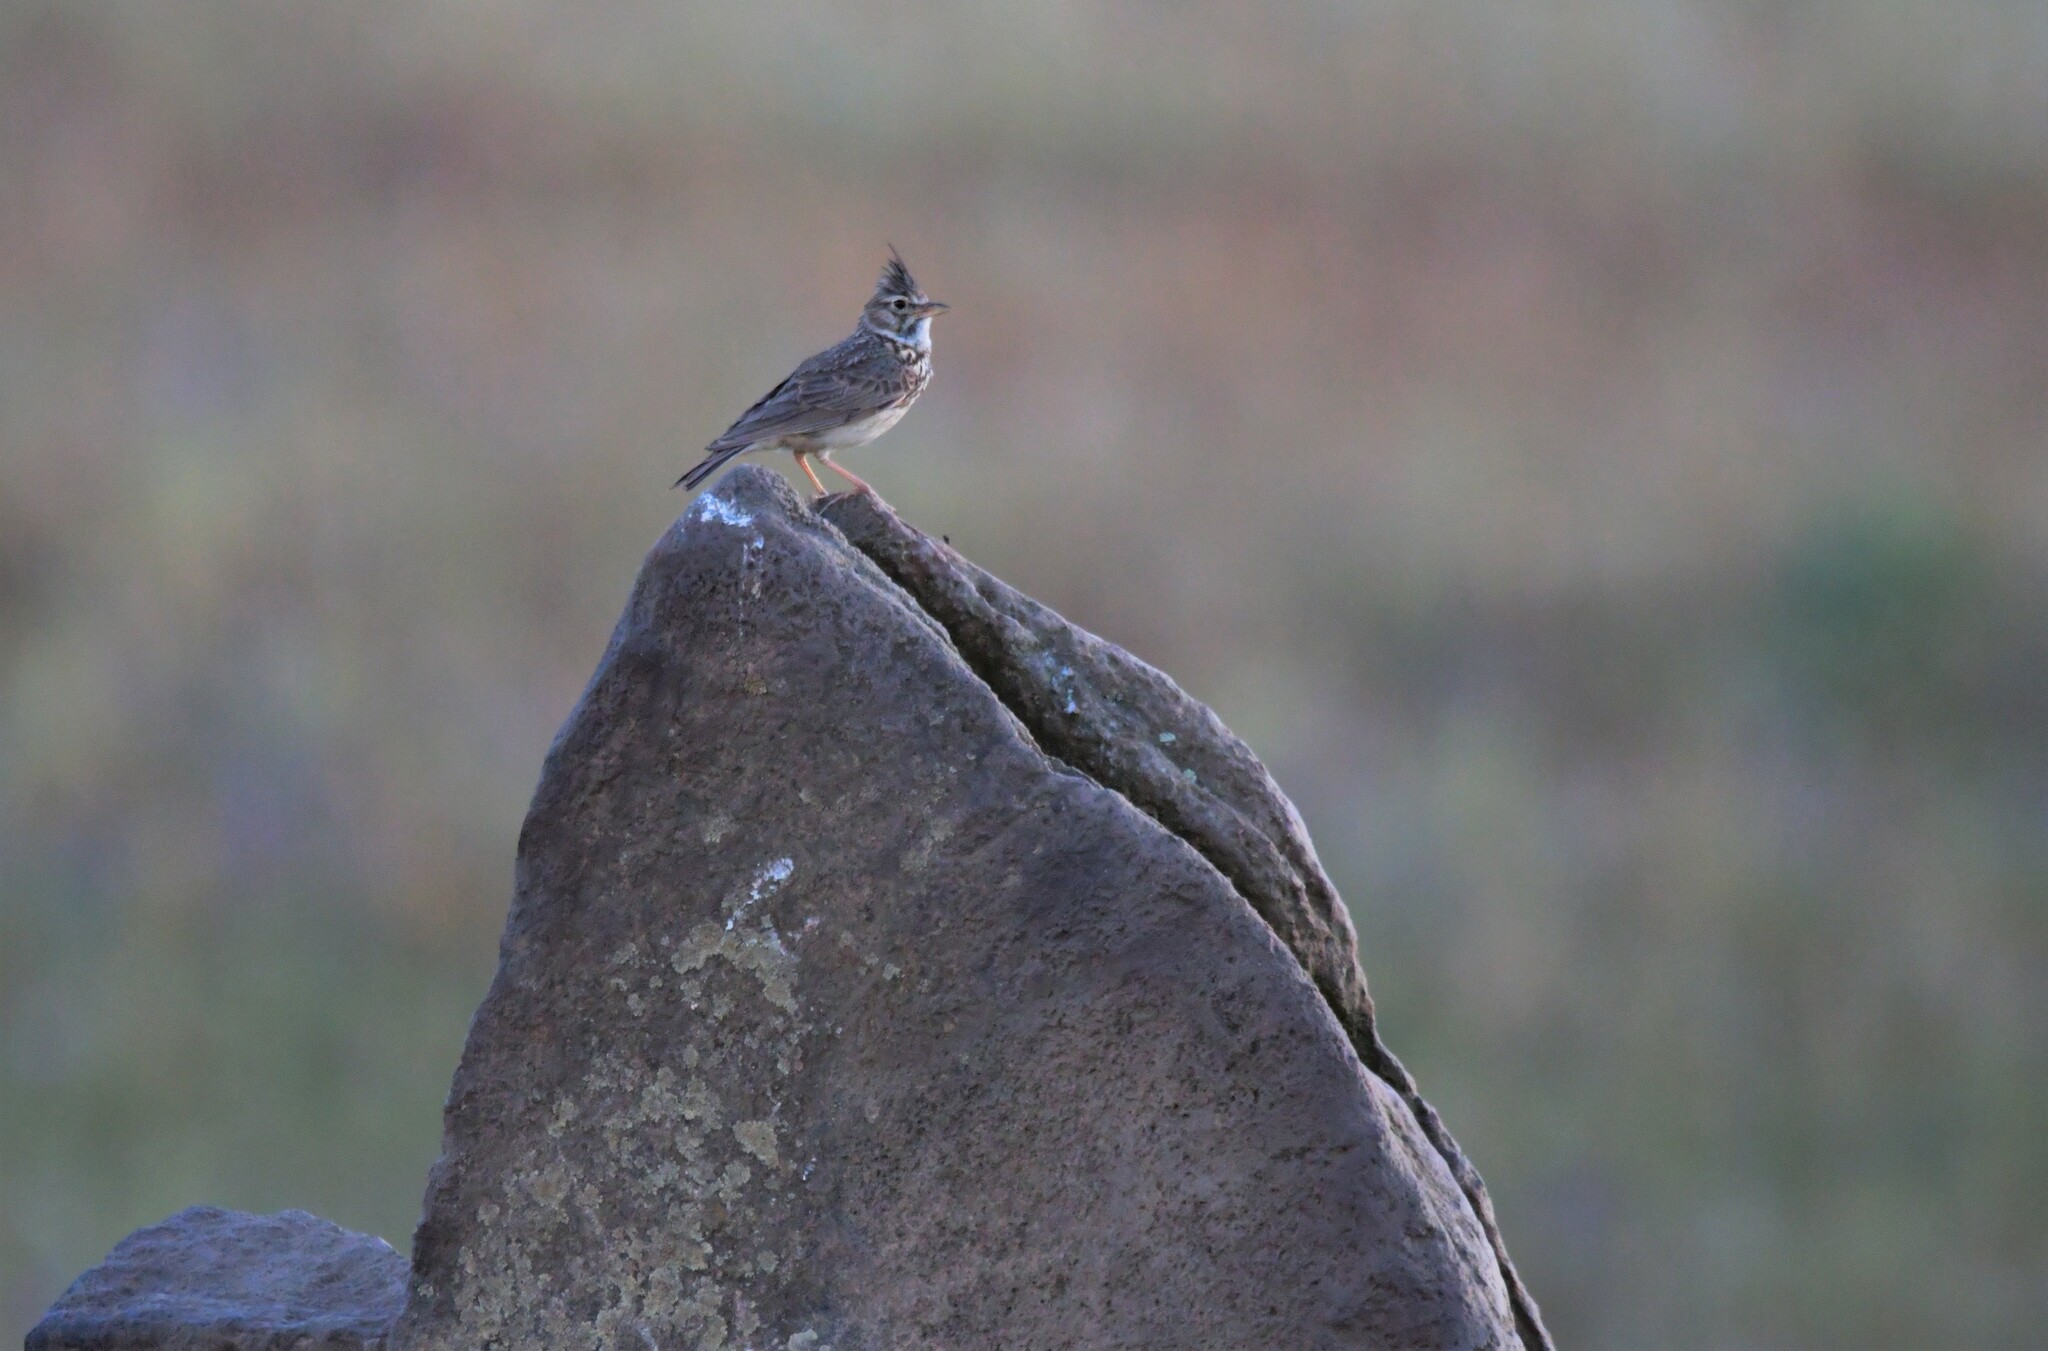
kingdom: Animalia
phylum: Chordata
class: Aves
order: Passeriformes
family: Alaudidae
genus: Galerida
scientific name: Galerida theklae
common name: Thekla lark
